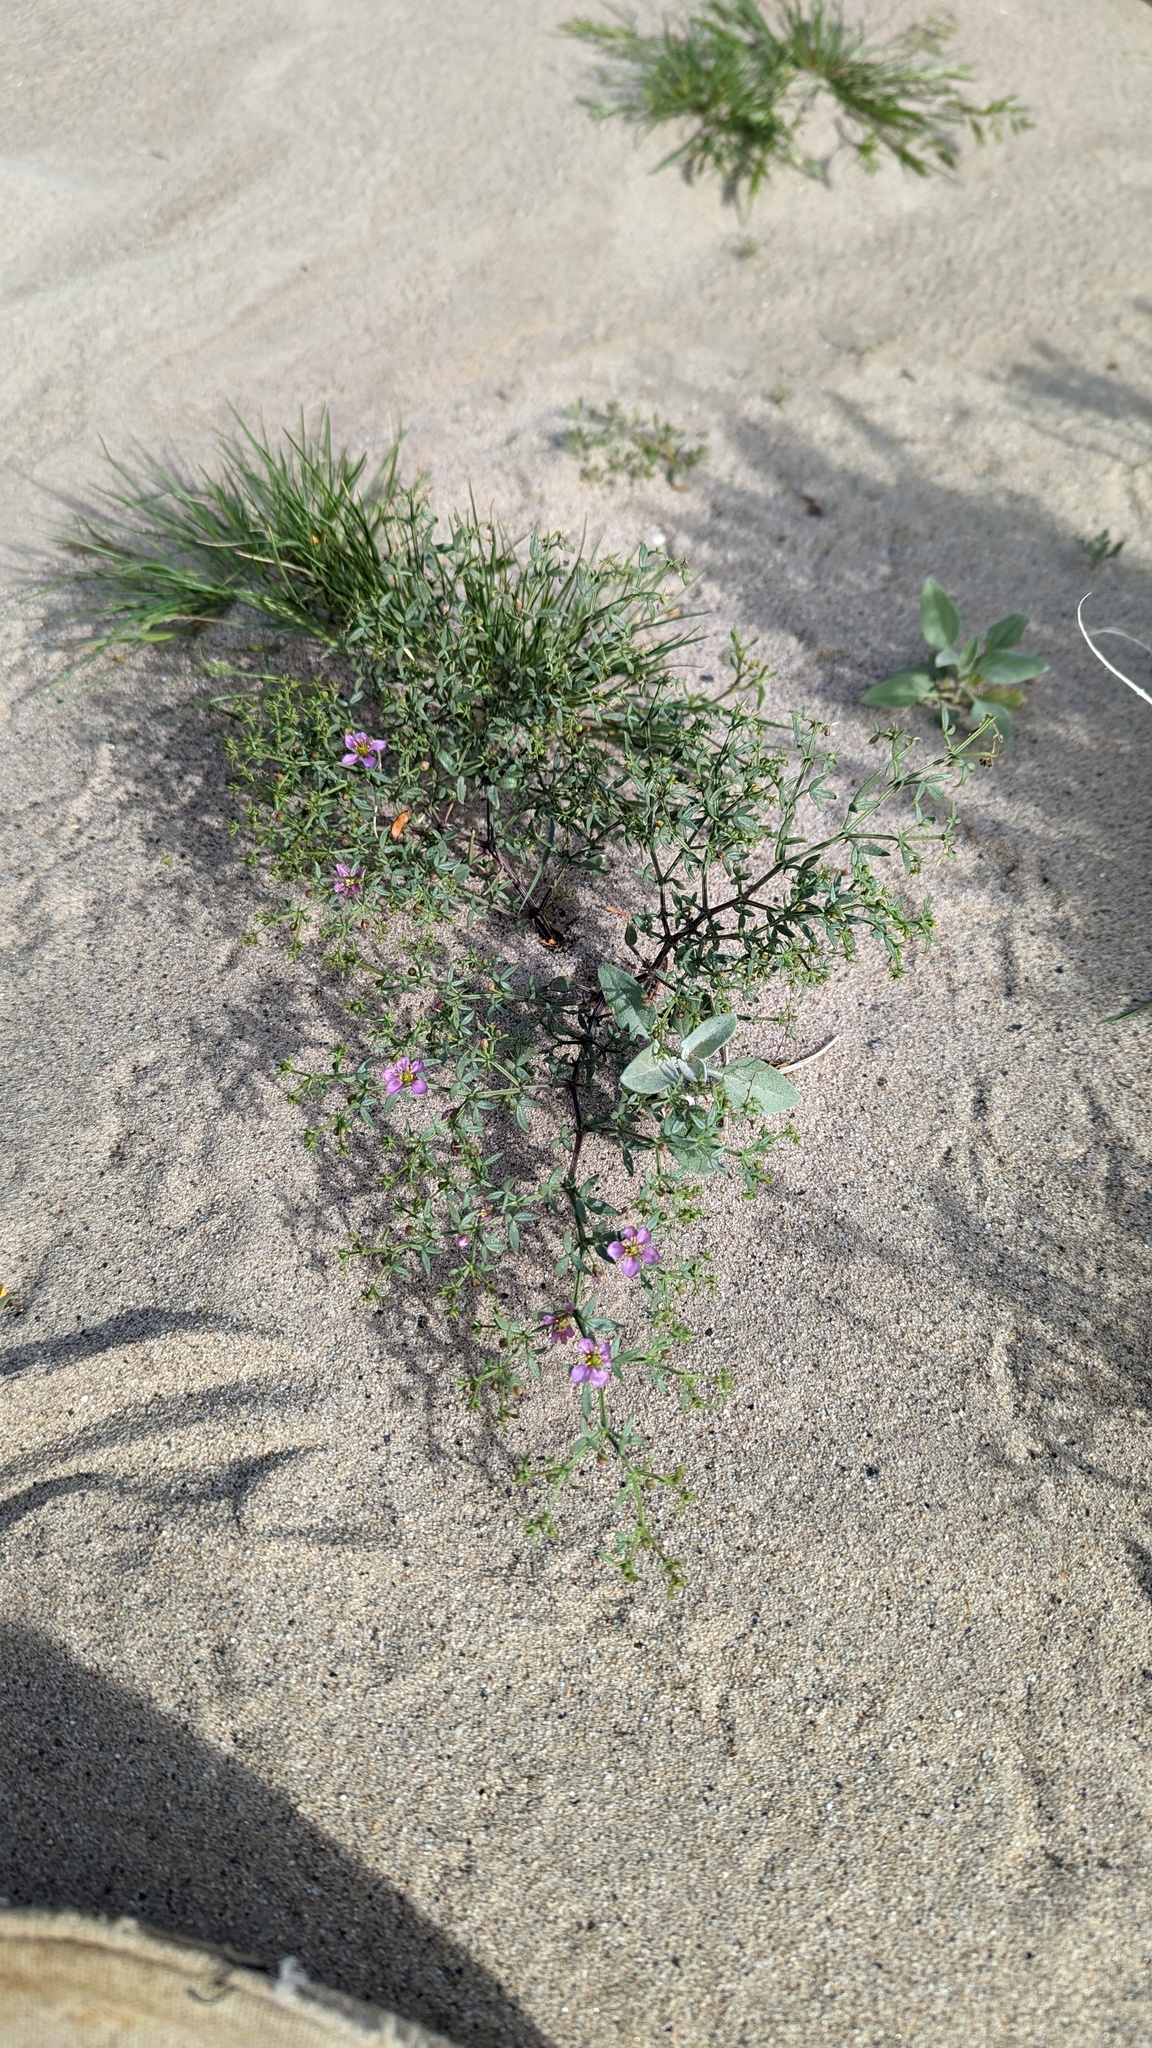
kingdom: Plantae
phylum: Tracheophyta
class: Magnoliopsida
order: Zygophyllales
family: Zygophyllaceae
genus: Fagonia
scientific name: Fagonia laevis
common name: California fagonbush
